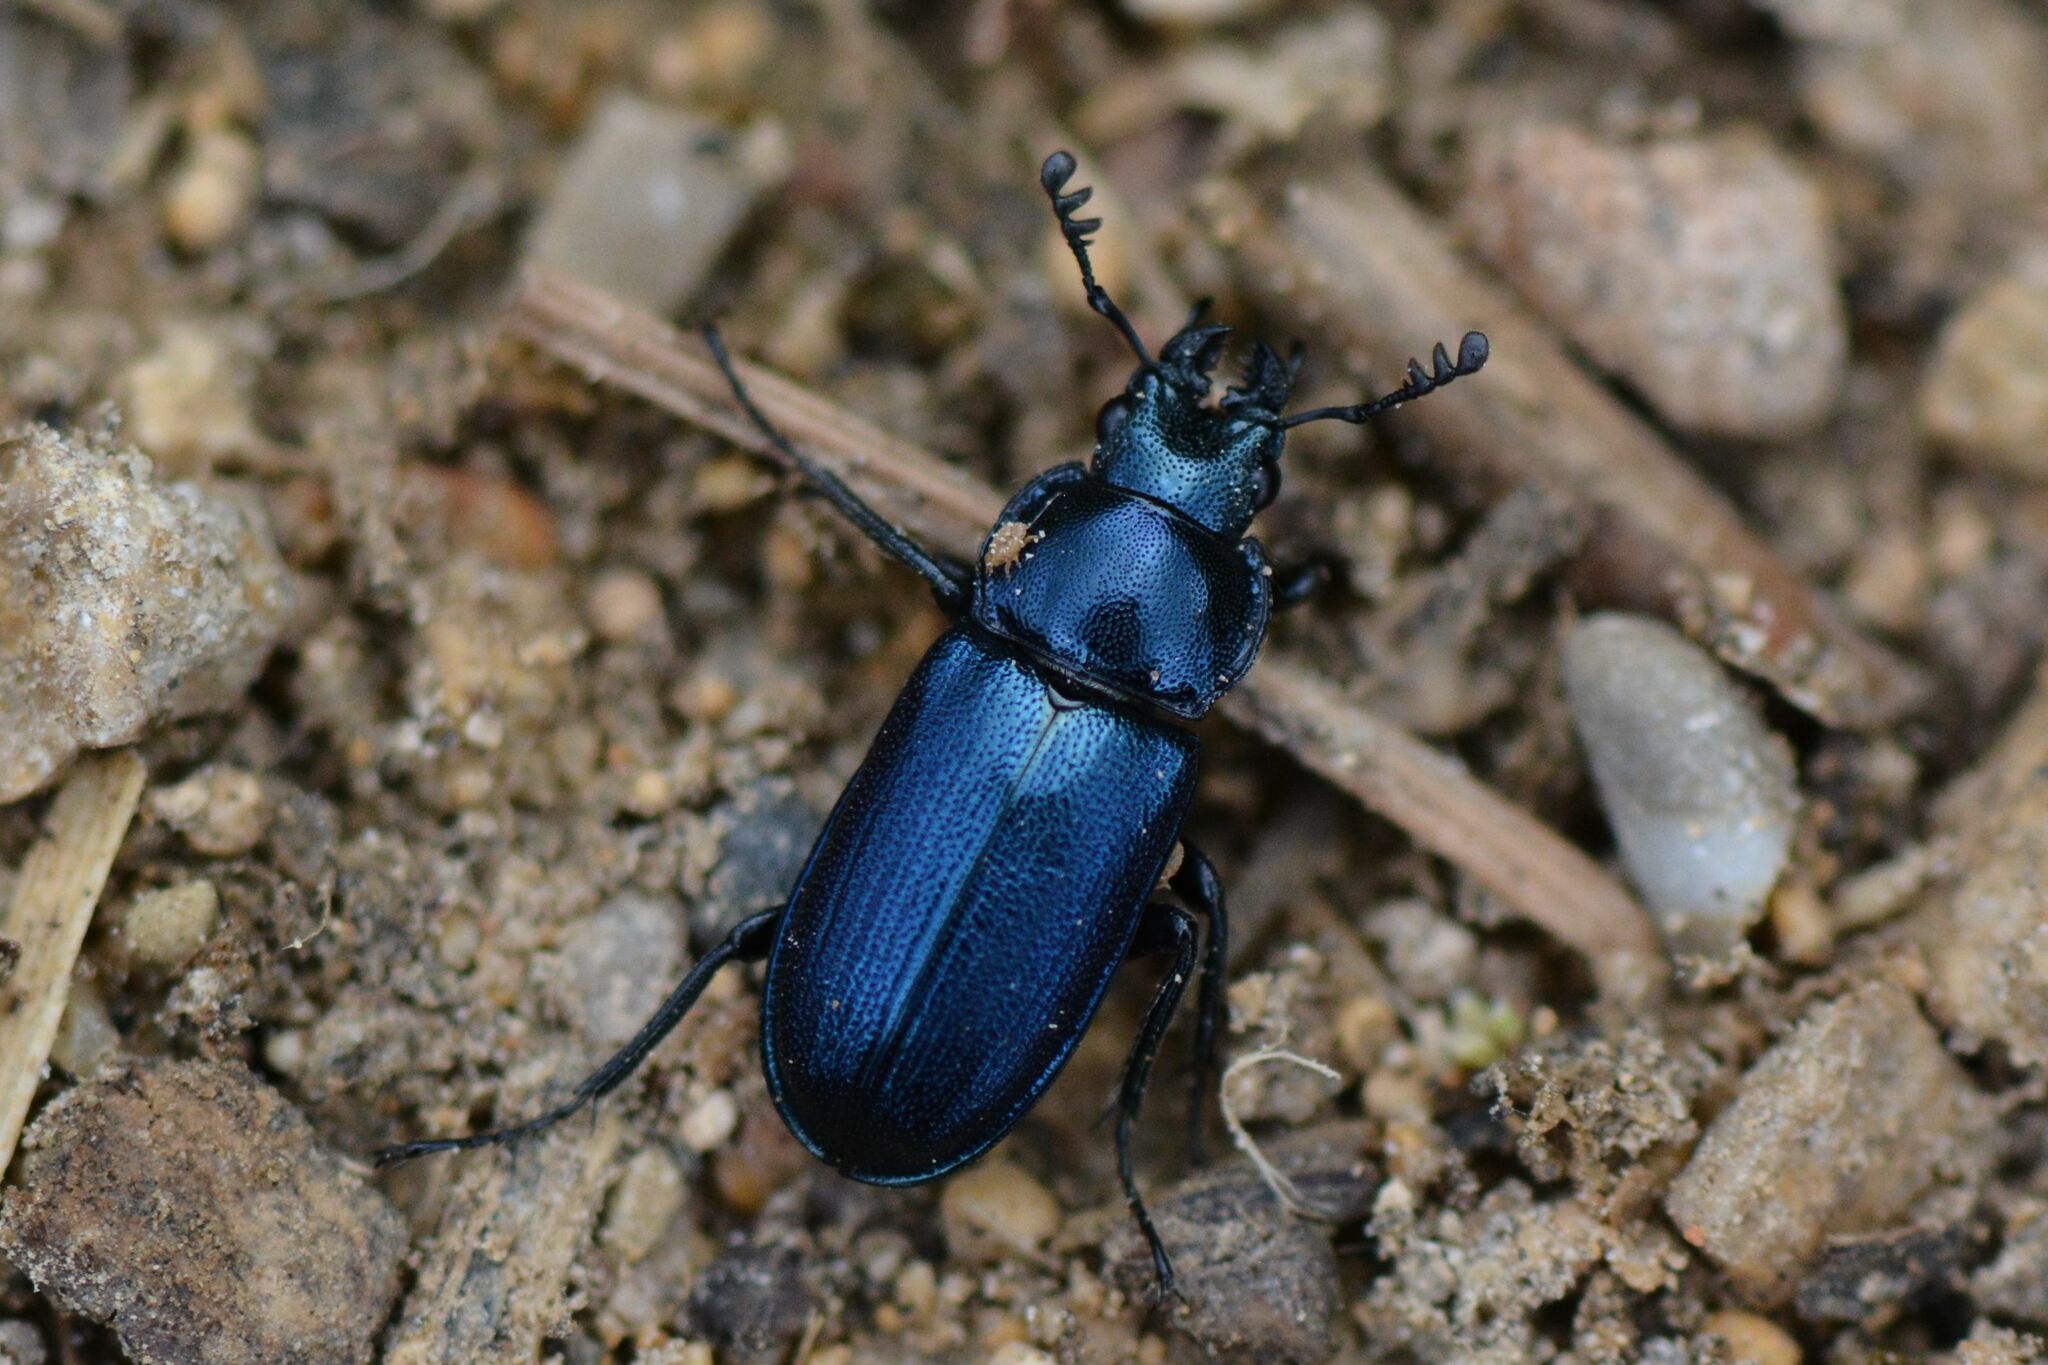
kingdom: Animalia
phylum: Arthropoda
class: Insecta
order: Coleoptera
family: Lucanidae
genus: Platycerus
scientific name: Platycerus caraboides
